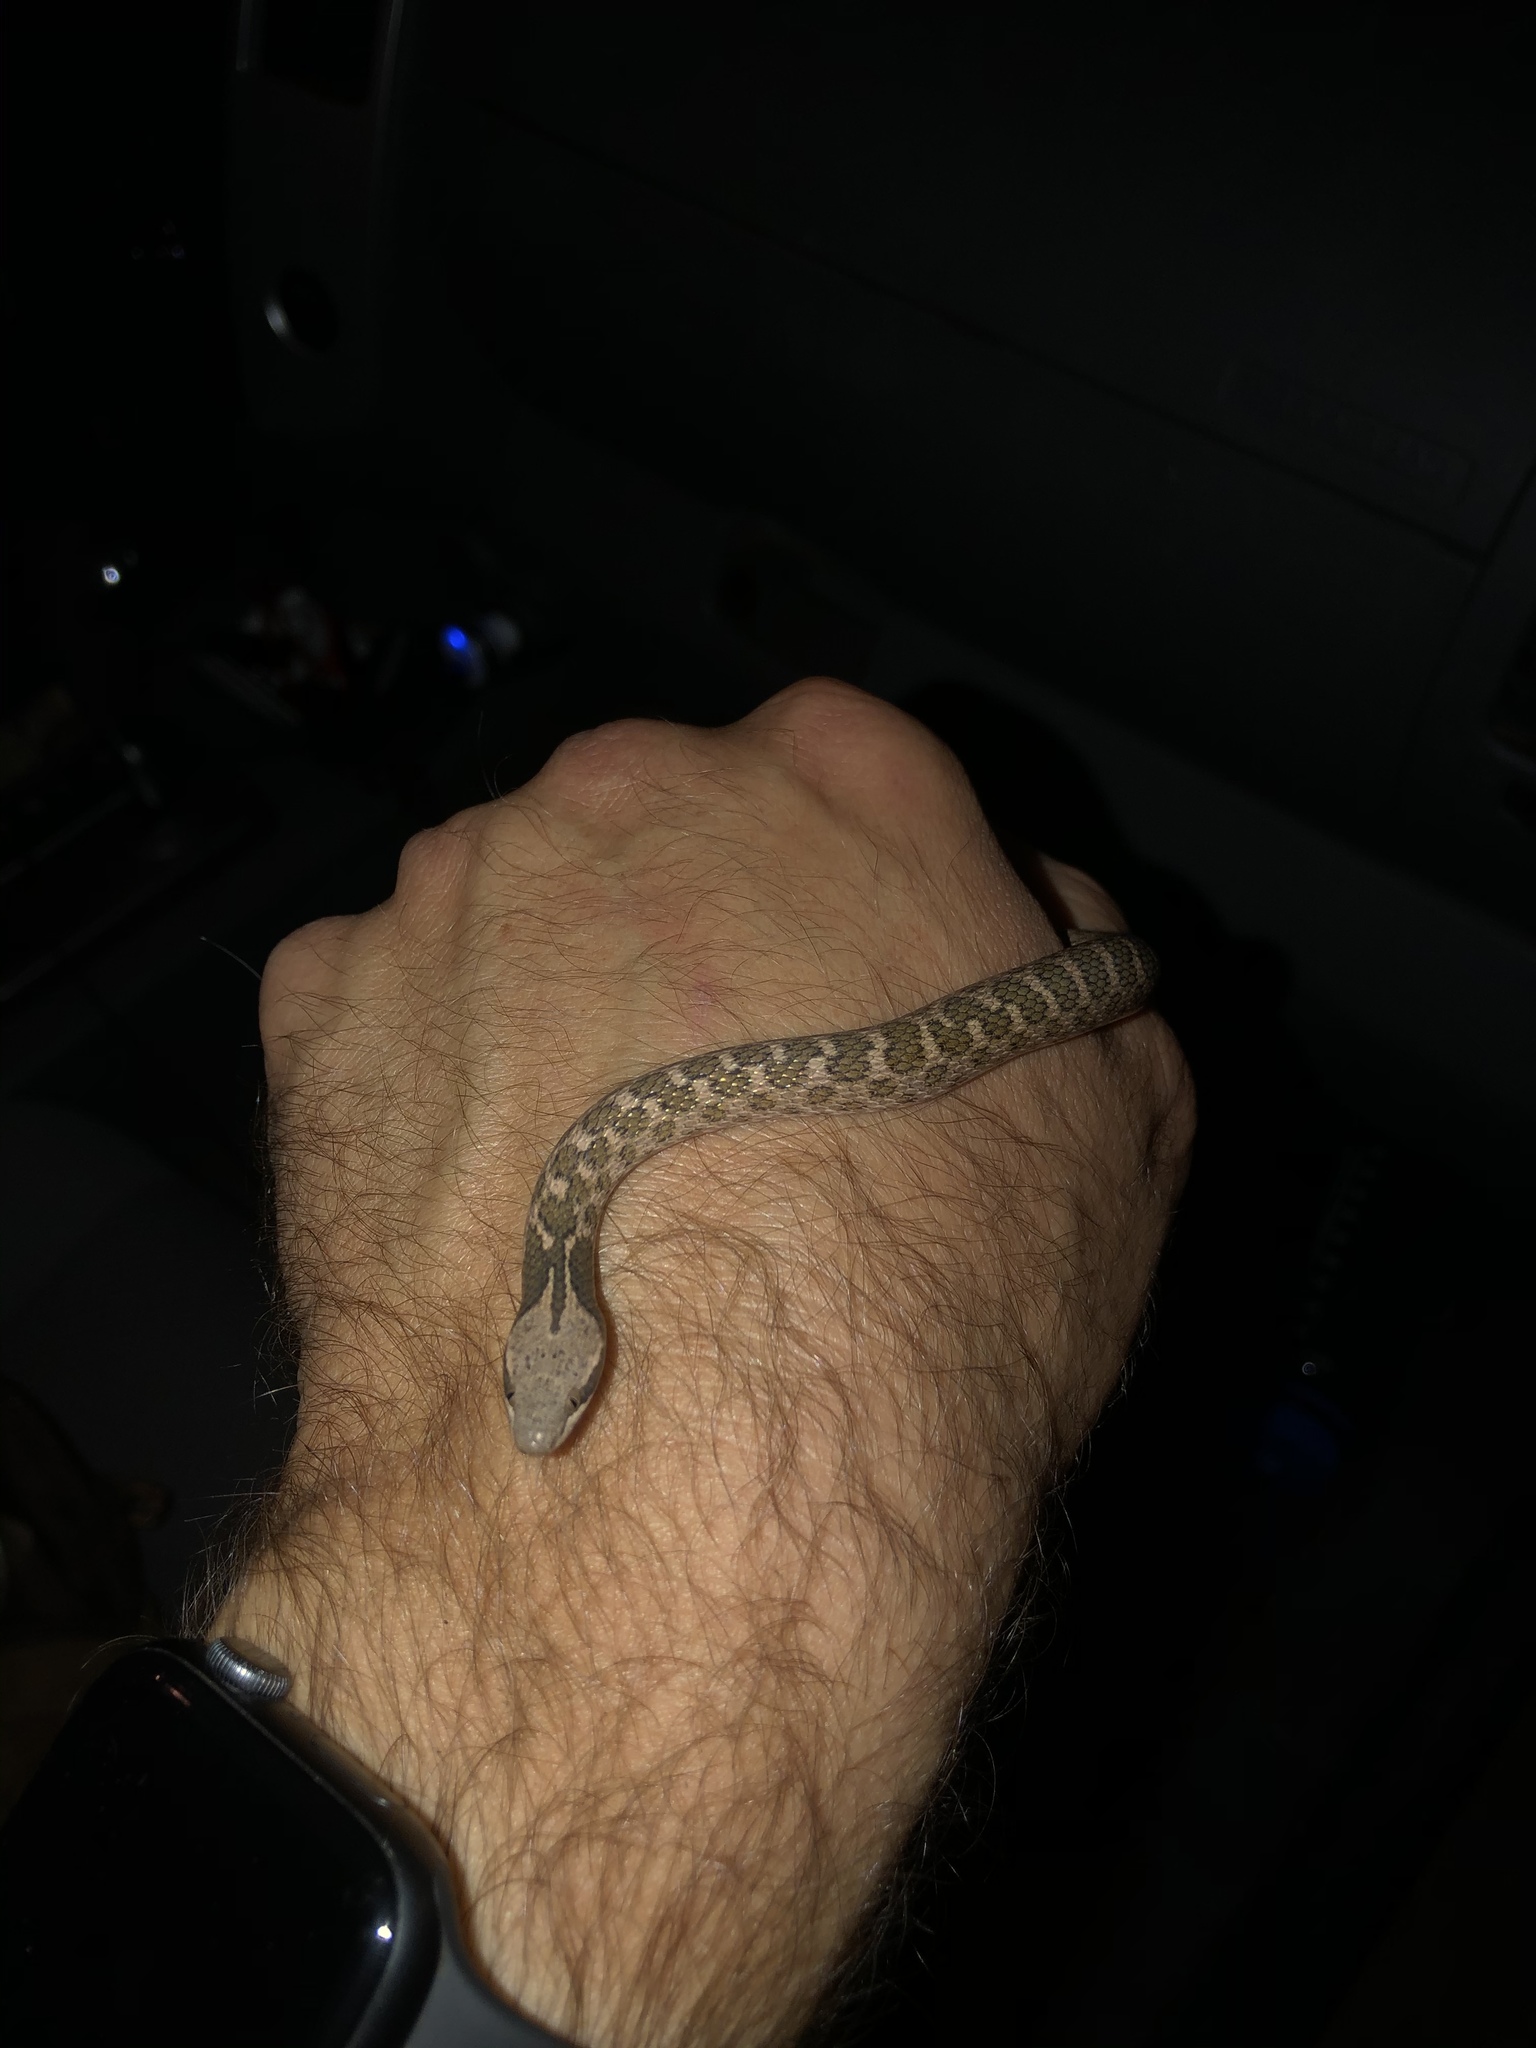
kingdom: Animalia
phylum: Chordata
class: Squamata
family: Colubridae
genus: Hypsiglena
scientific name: Hypsiglena jani
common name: Chihuahuan nightsnake
